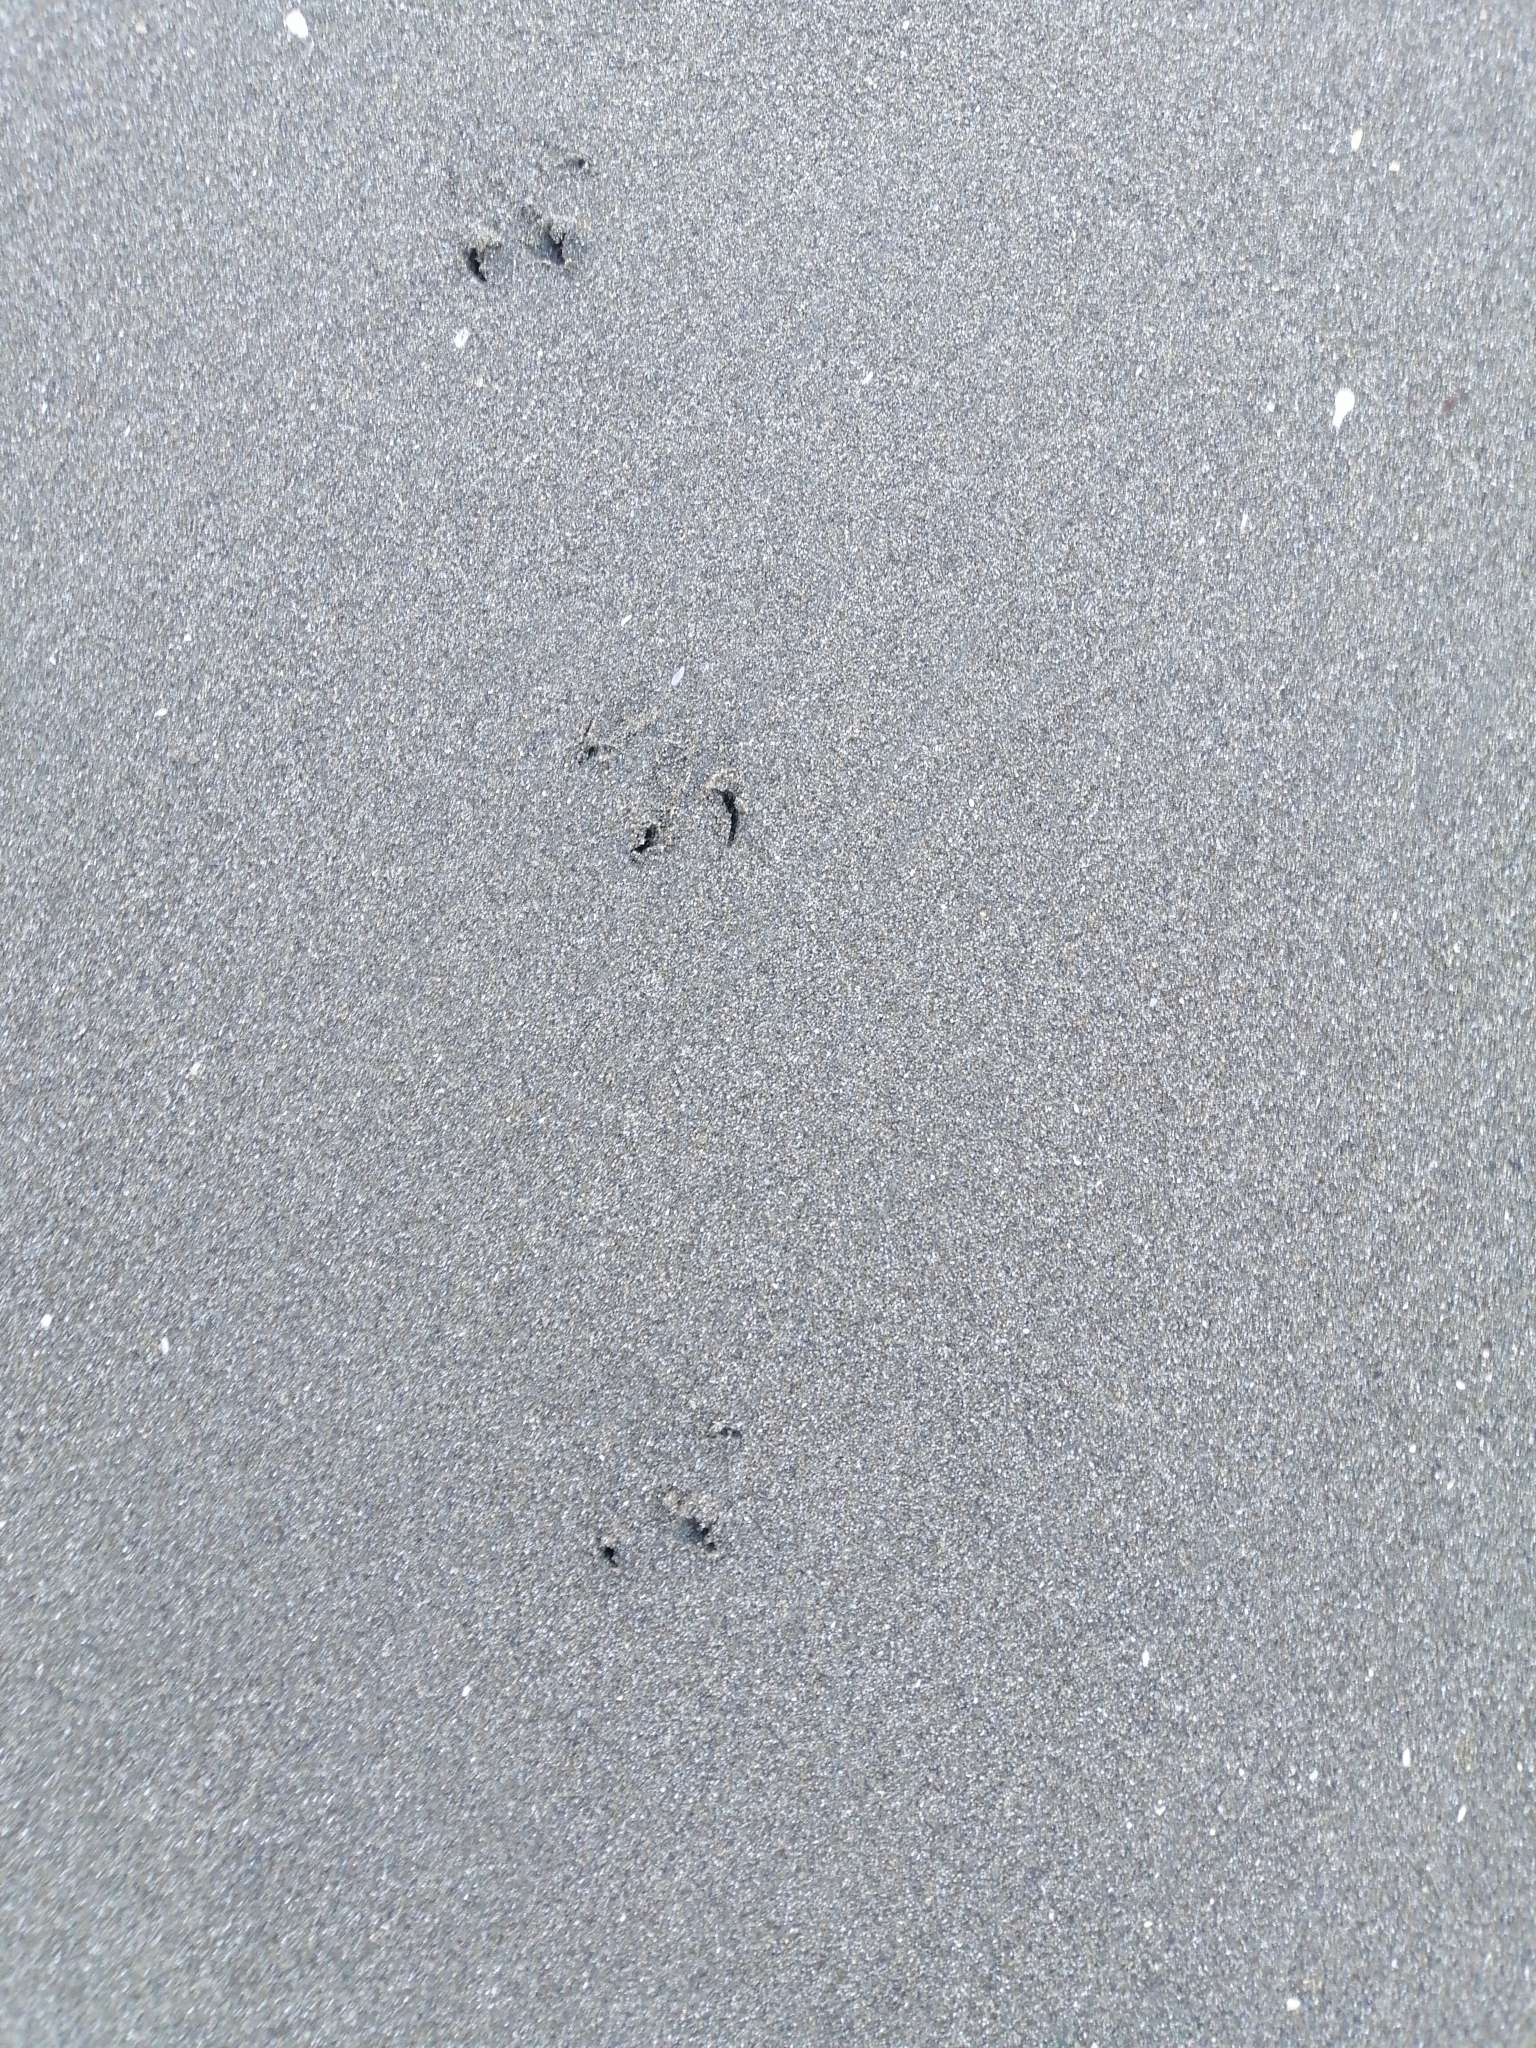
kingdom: Animalia
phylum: Chordata
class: Aves
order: Sphenisciformes
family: Spheniscidae
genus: Eudyptula
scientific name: Eudyptula minor
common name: Little penguin
